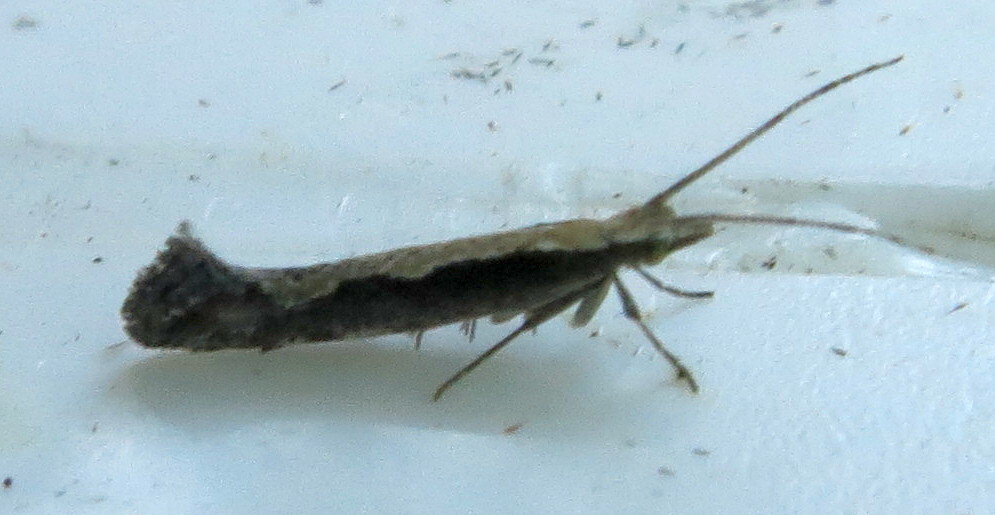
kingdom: Animalia
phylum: Arthropoda
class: Insecta
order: Lepidoptera
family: Plutellidae
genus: Plutella
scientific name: Plutella xylostella
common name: Diamond-back moth
